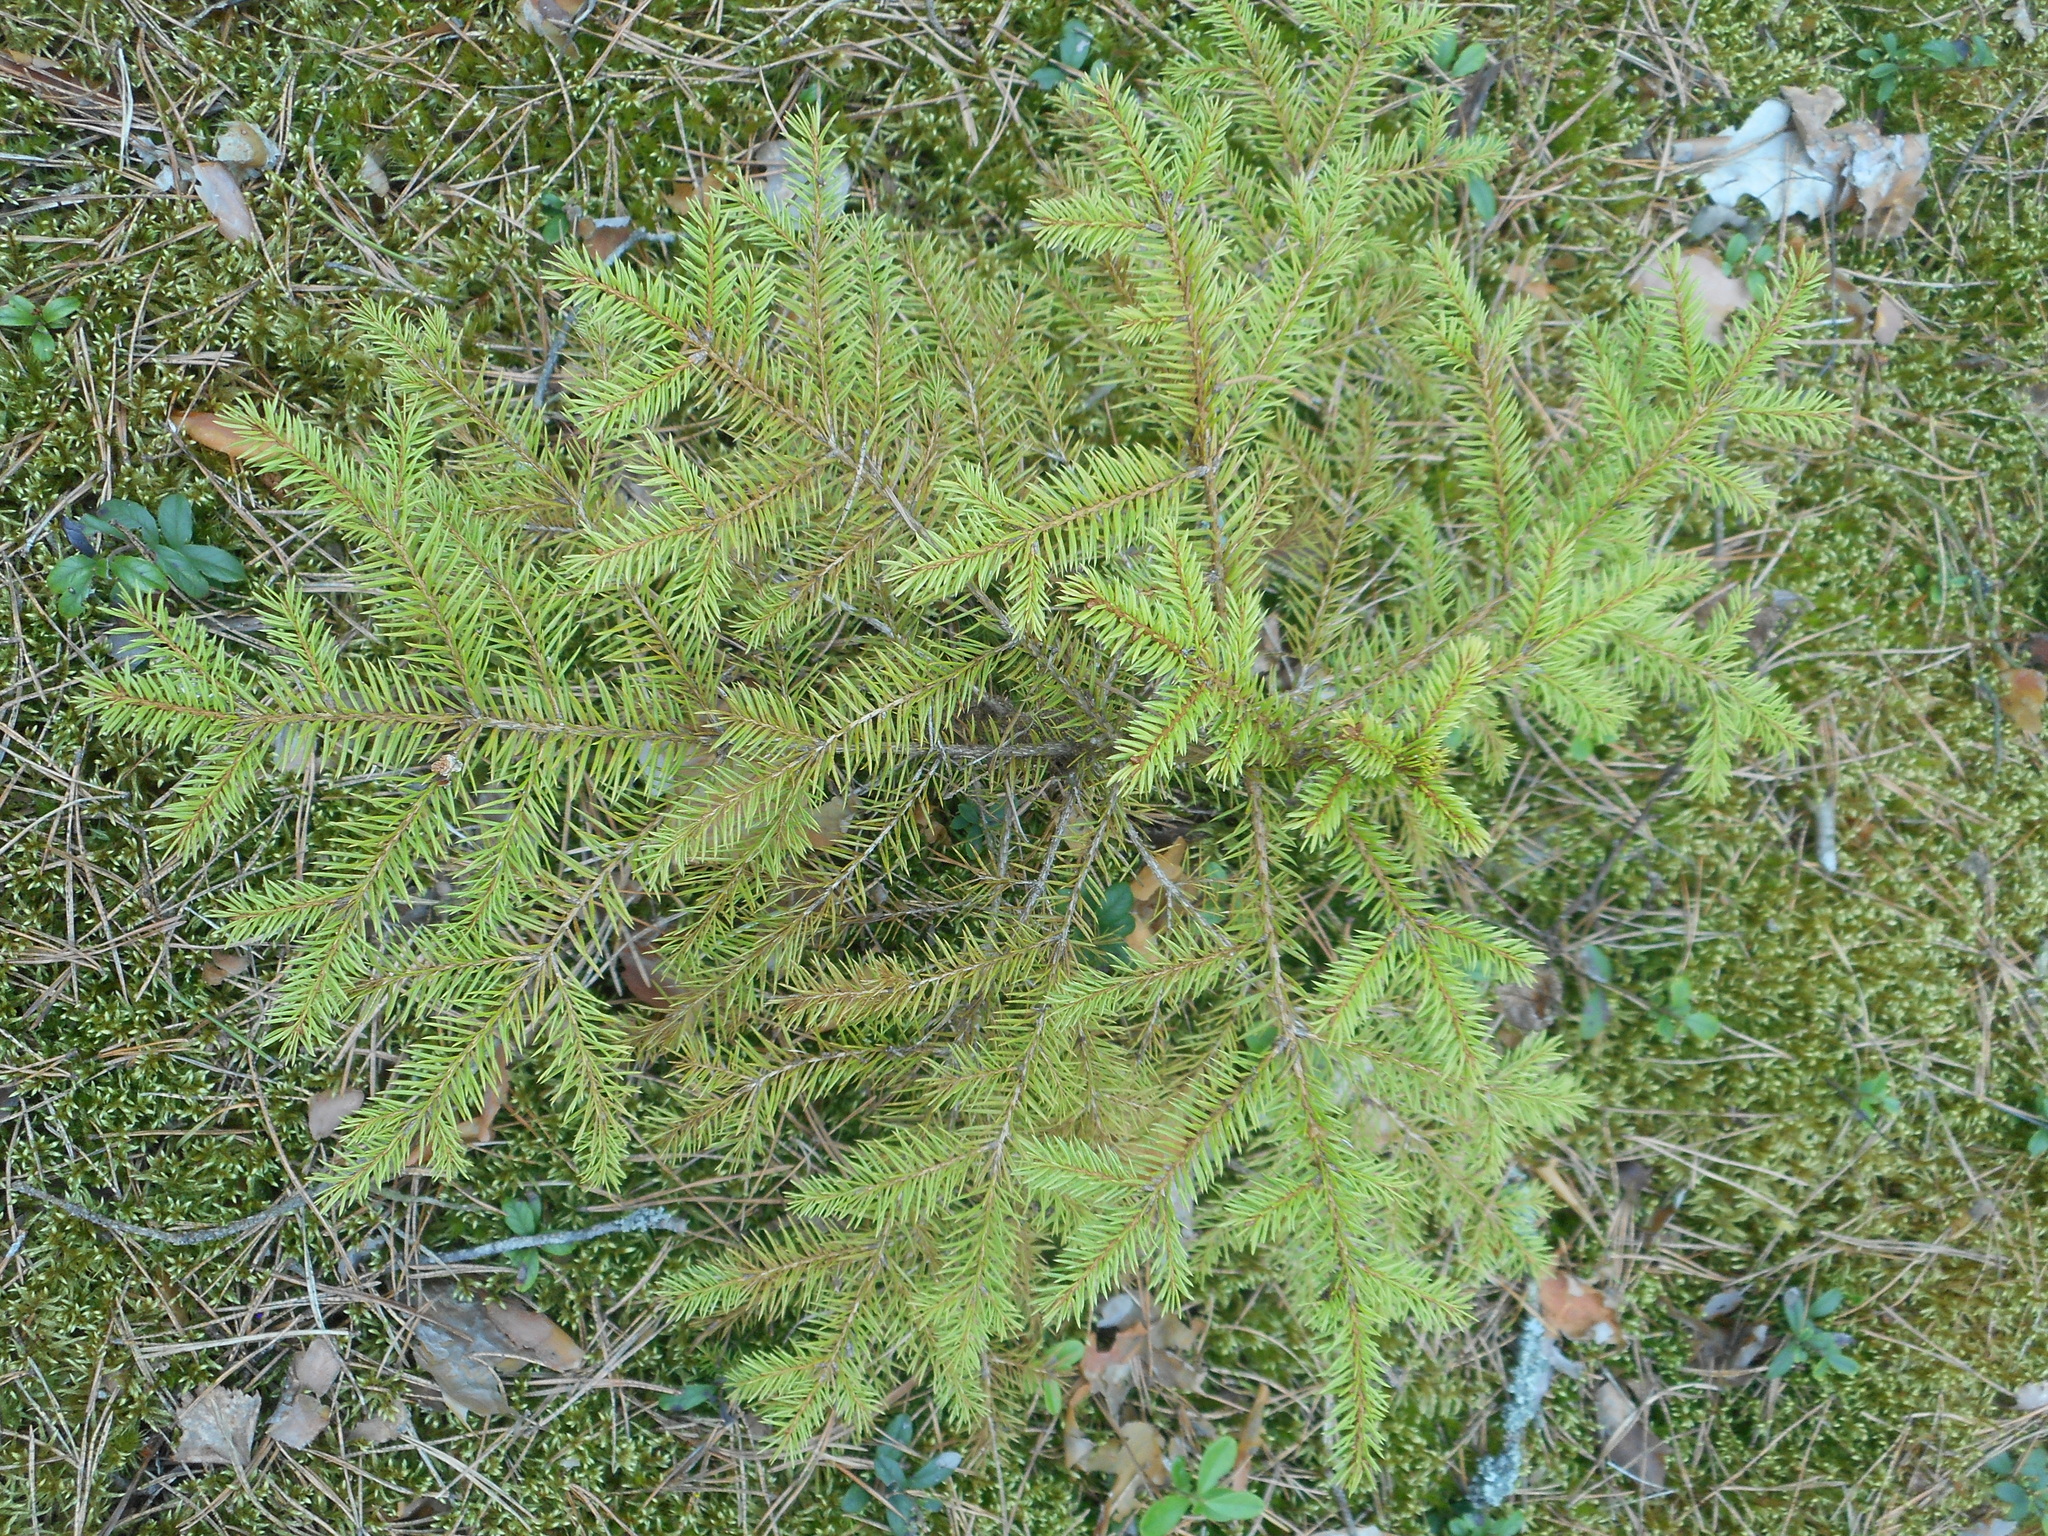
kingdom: Plantae
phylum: Tracheophyta
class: Pinopsida
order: Pinales
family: Pinaceae
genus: Picea
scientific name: Picea abies
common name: Norway spruce
